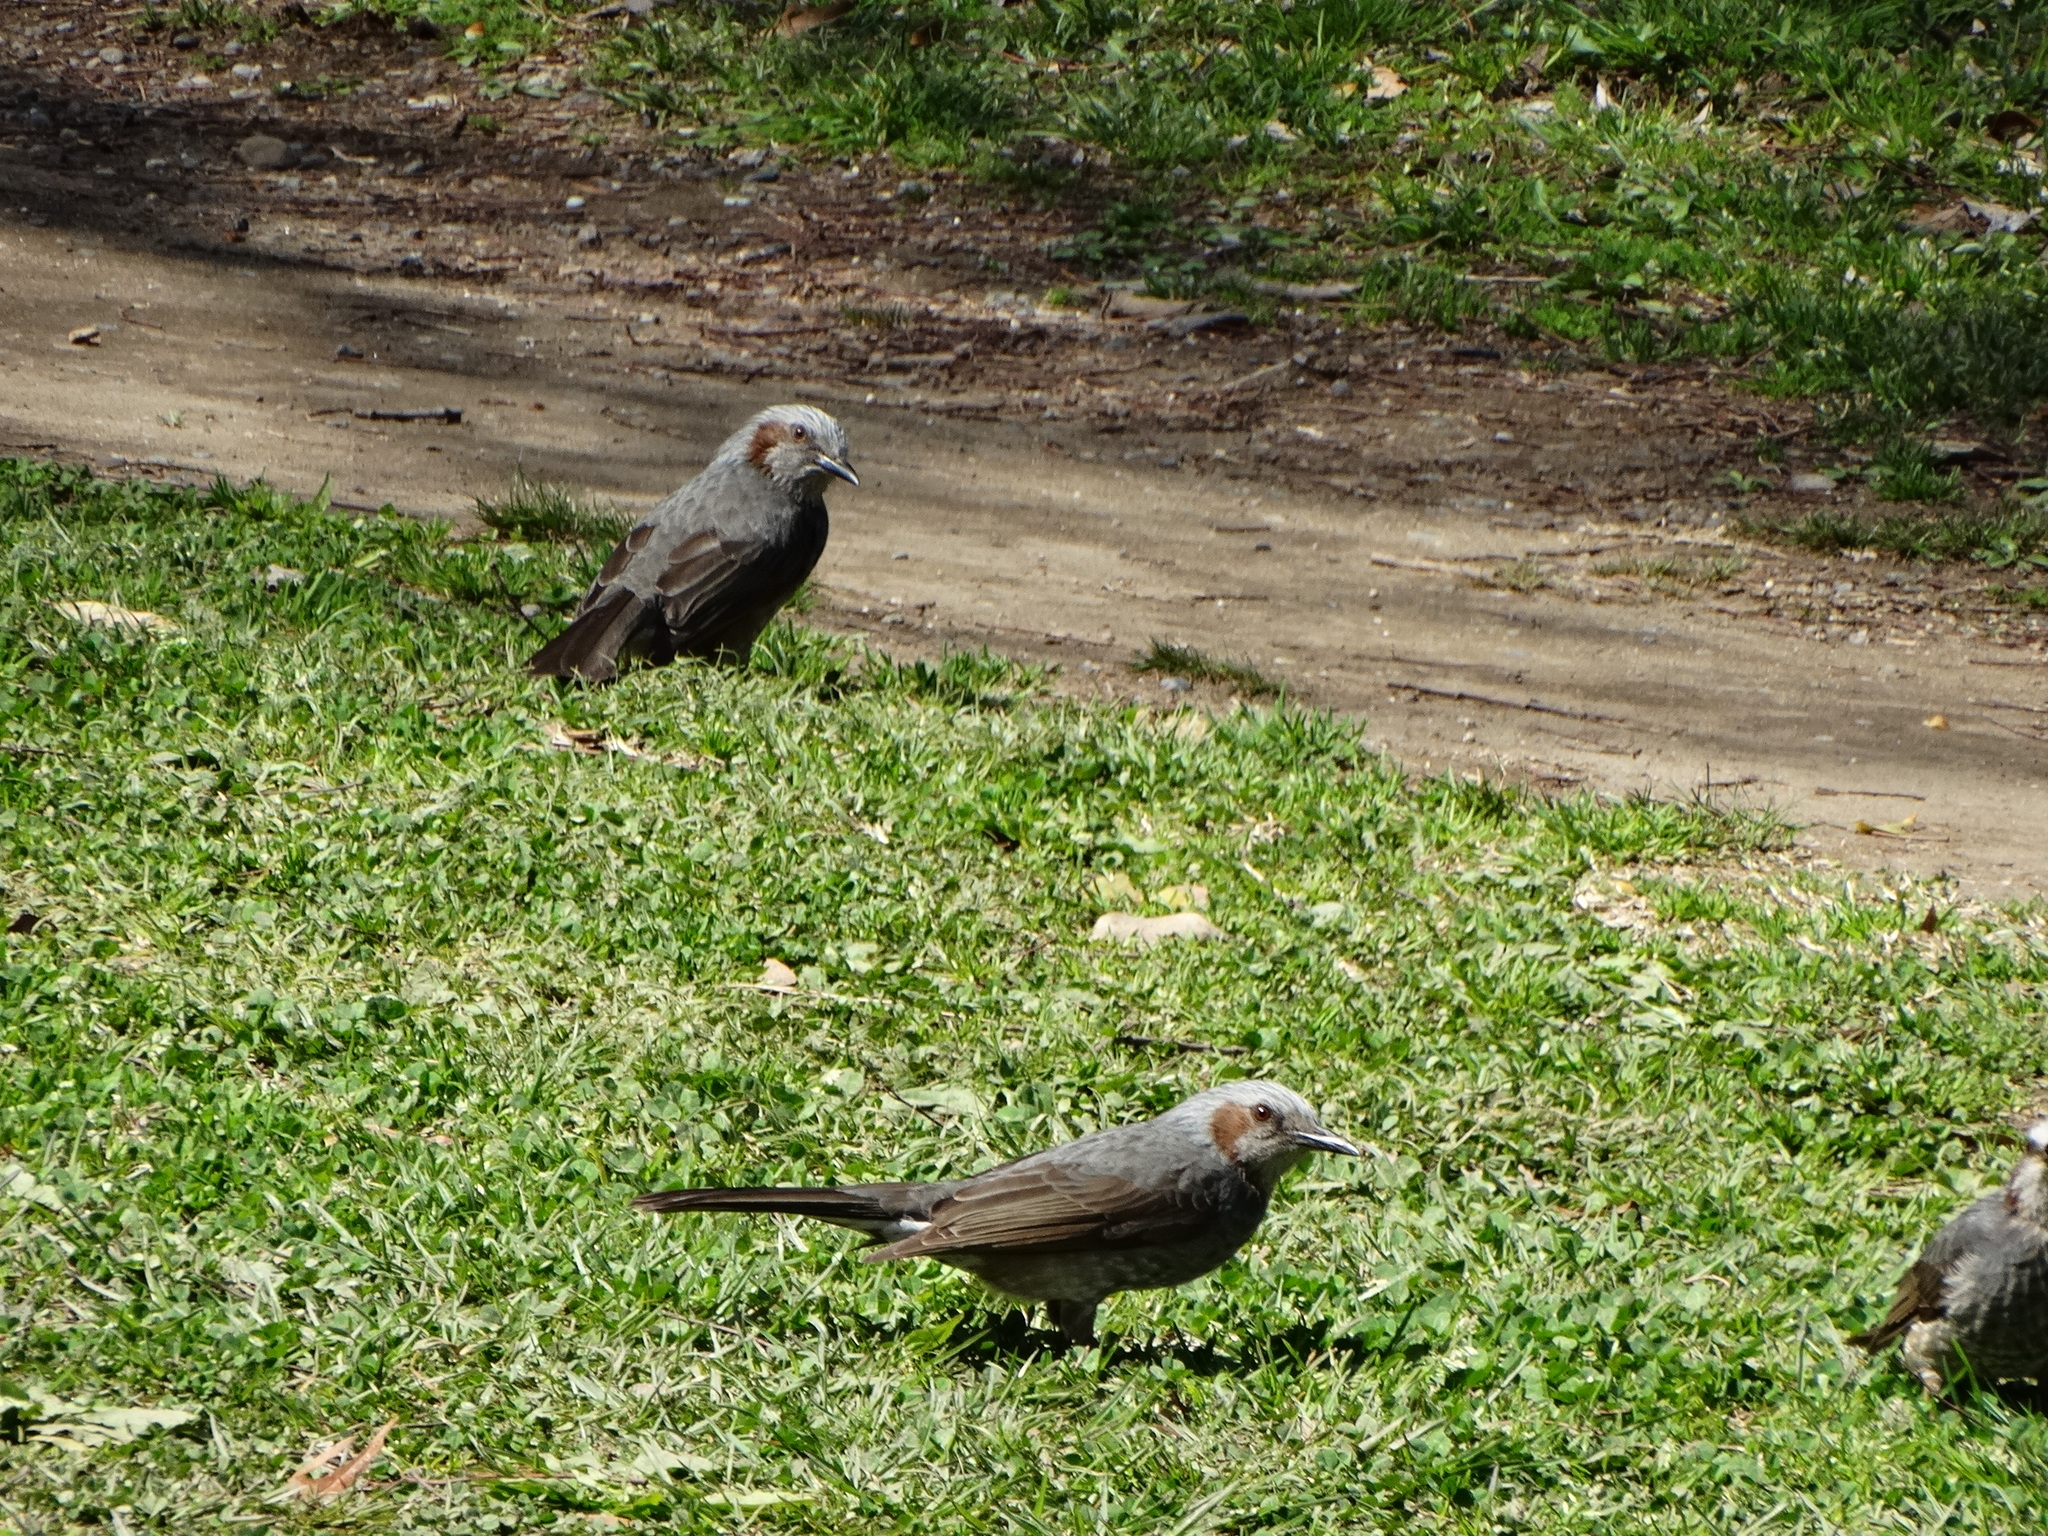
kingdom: Animalia
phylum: Chordata
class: Aves
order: Passeriformes
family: Pycnonotidae
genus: Hypsipetes
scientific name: Hypsipetes amaurotis
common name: Brown-eared bulbul
